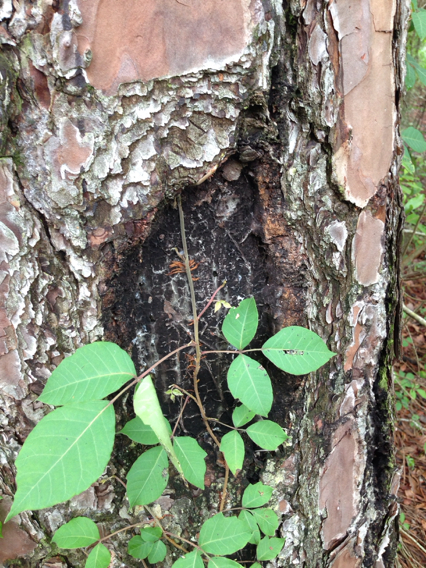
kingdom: Plantae
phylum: Tracheophyta
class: Magnoliopsida
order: Sapindales
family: Anacardiaceae
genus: Toxicodendron
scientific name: Toxicodendron radicans
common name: Poison ivy
